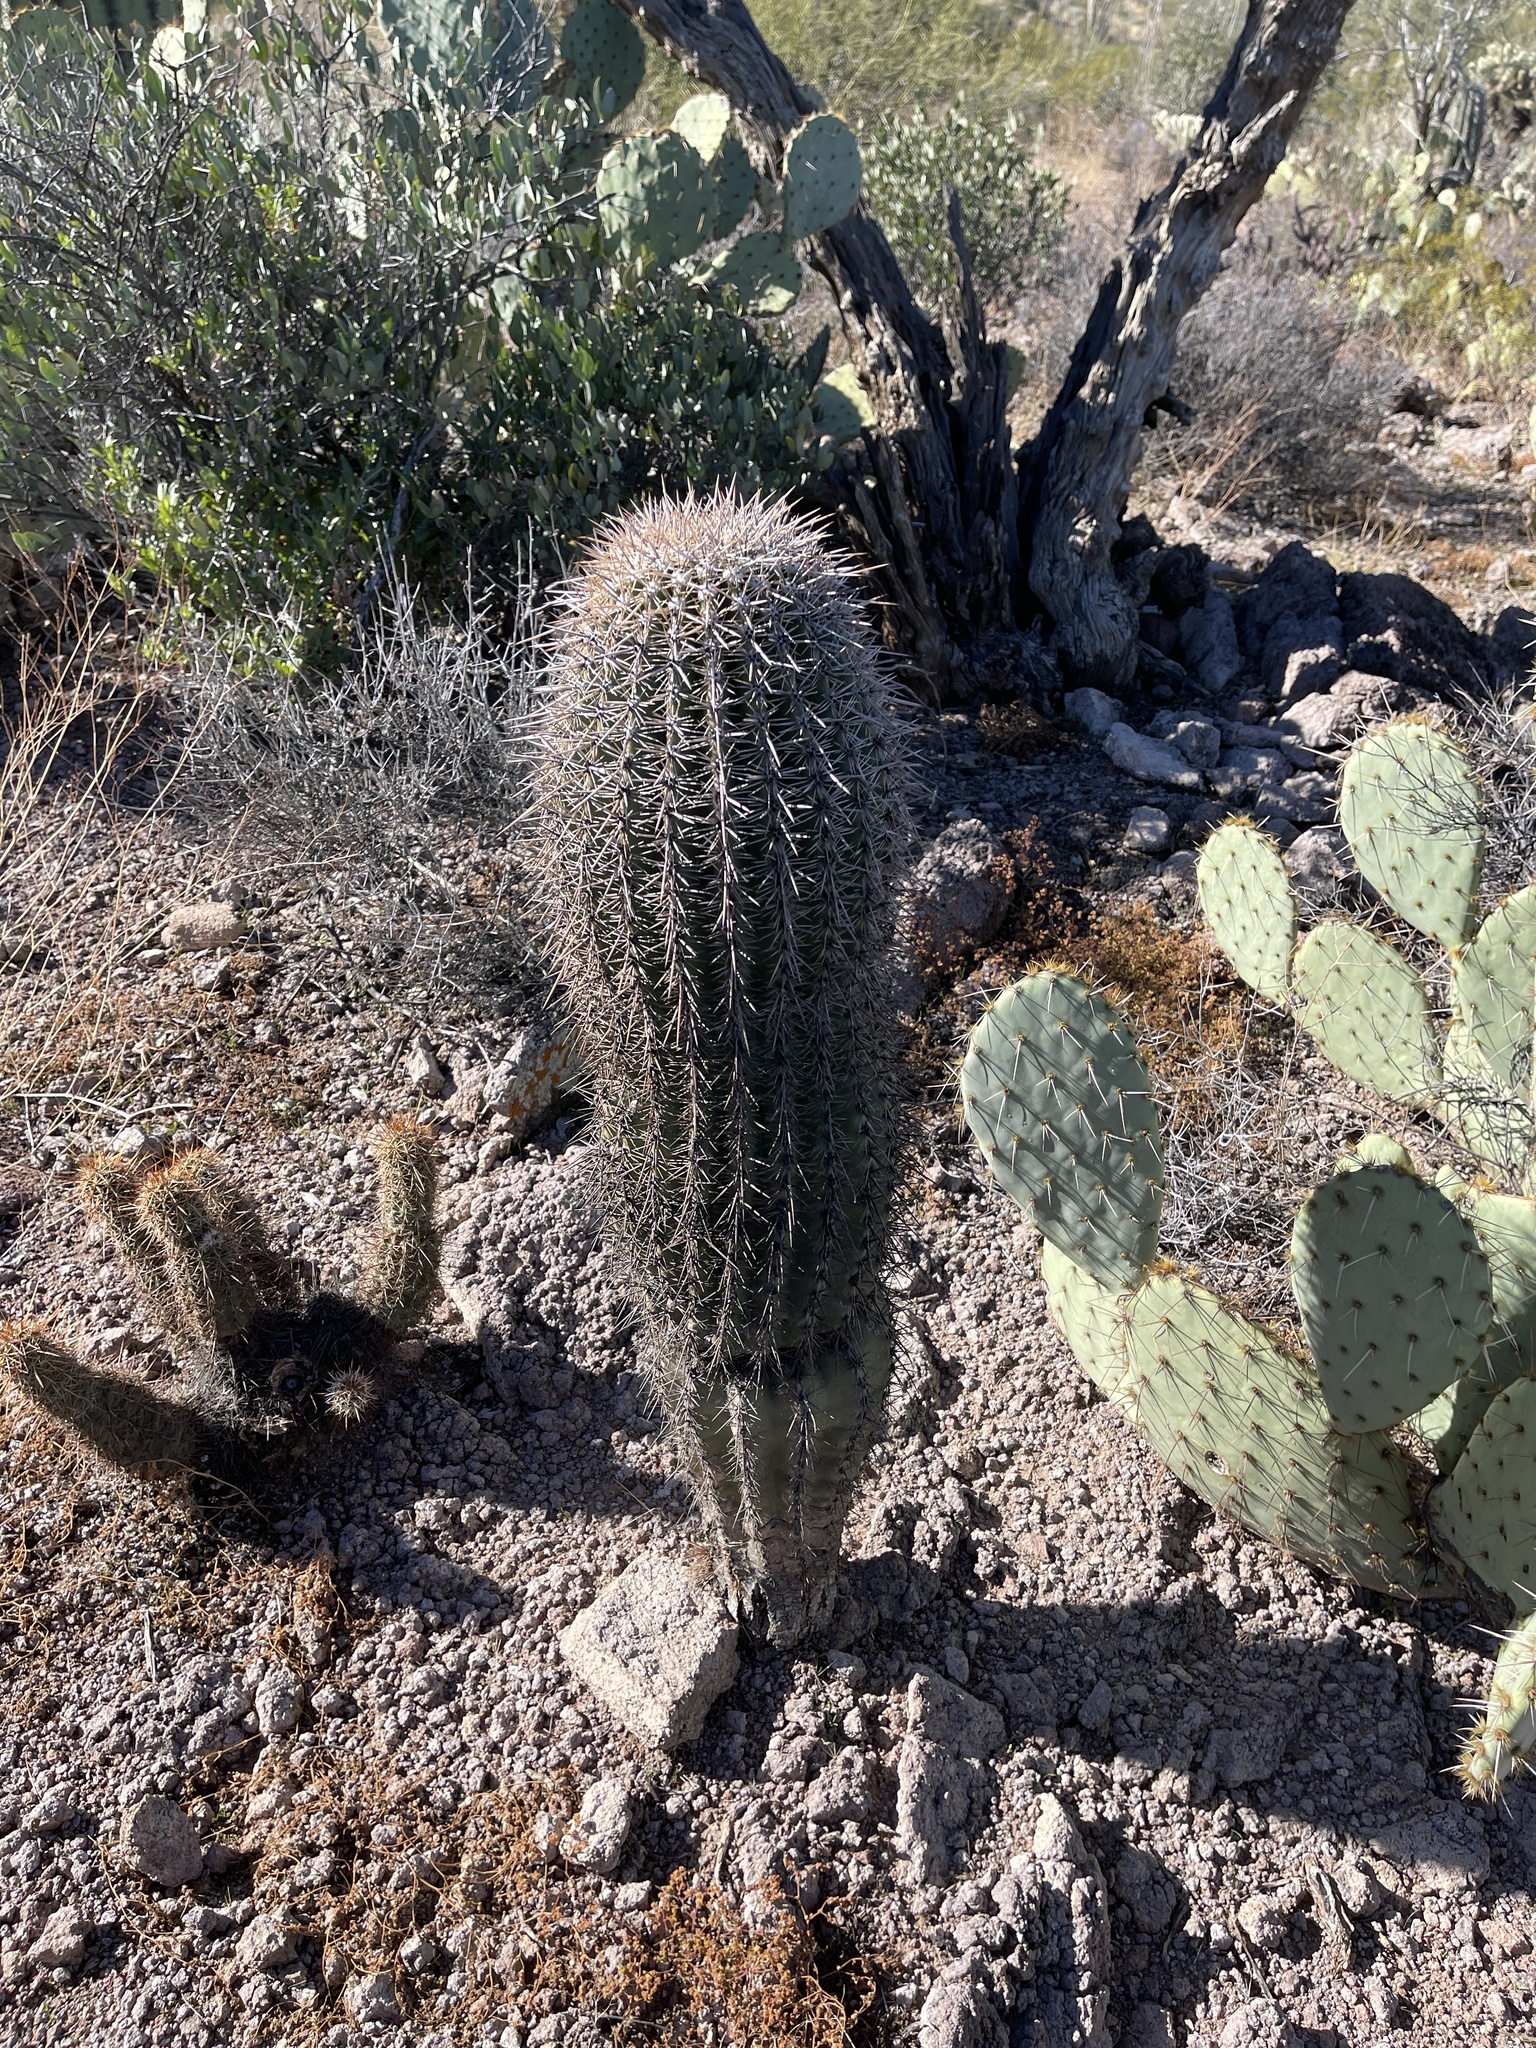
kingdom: Plantae
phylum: Tracheophyta
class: Magnoliopsida
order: Caryophyllales
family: Cactaceae
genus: Carnegiea
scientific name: Carnegiea gigantea
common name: Saguaro
